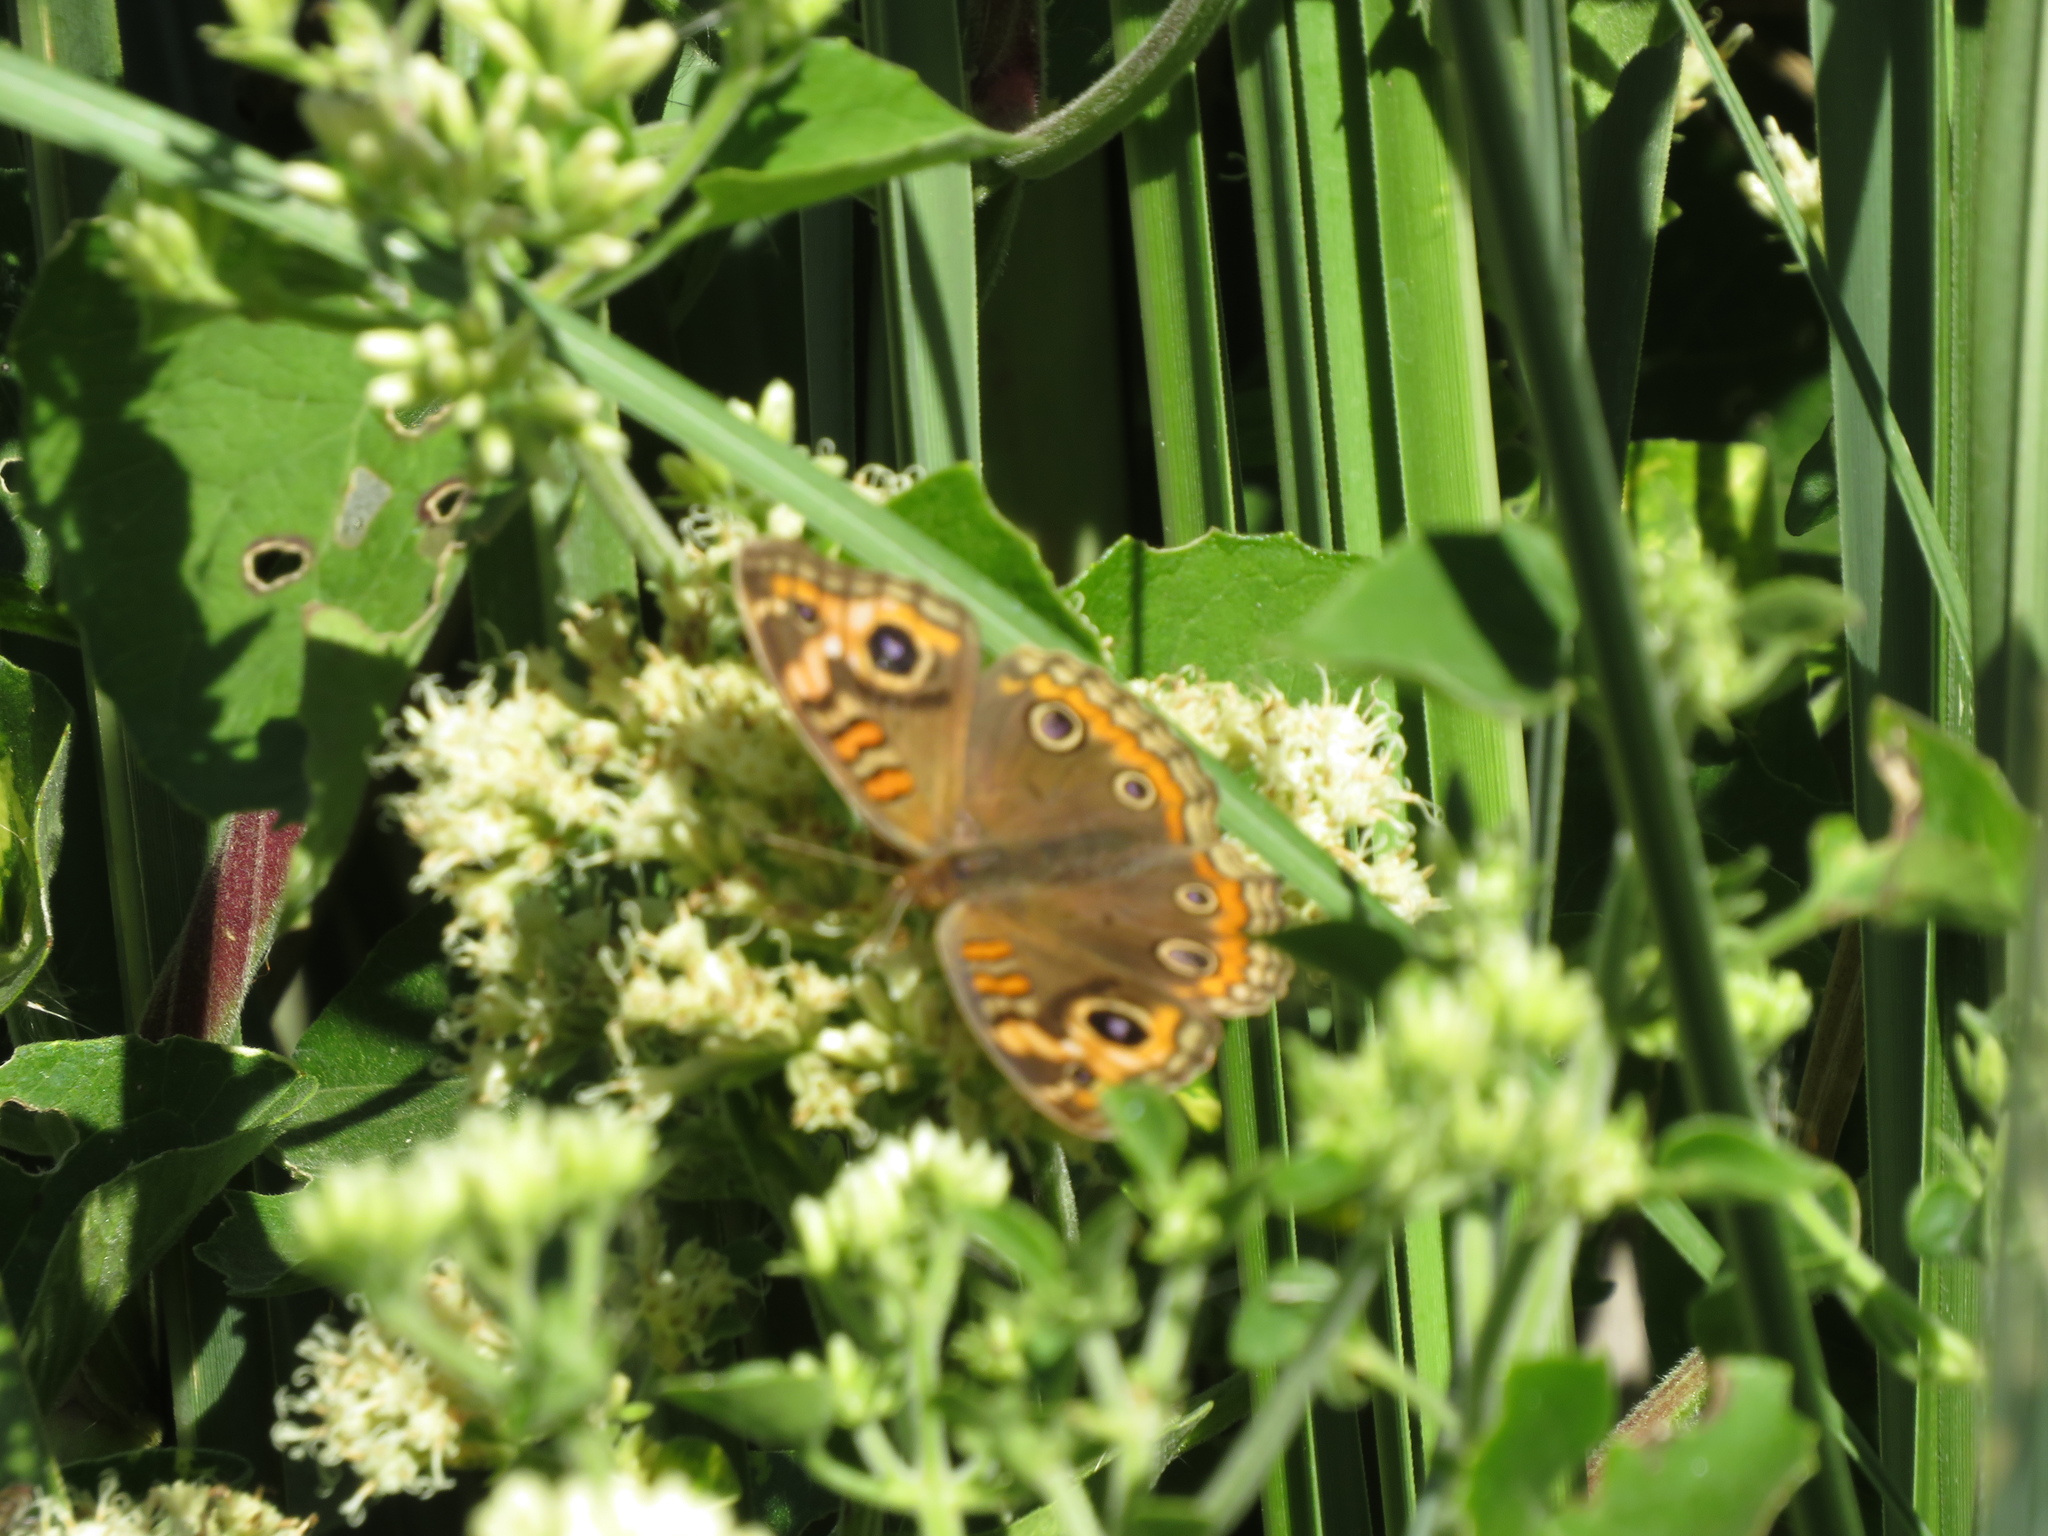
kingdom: Animalia
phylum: Arthropoda
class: Insecta
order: Lepidoptera
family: Nymphalidae
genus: Junonia
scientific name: Junonia lavinia
